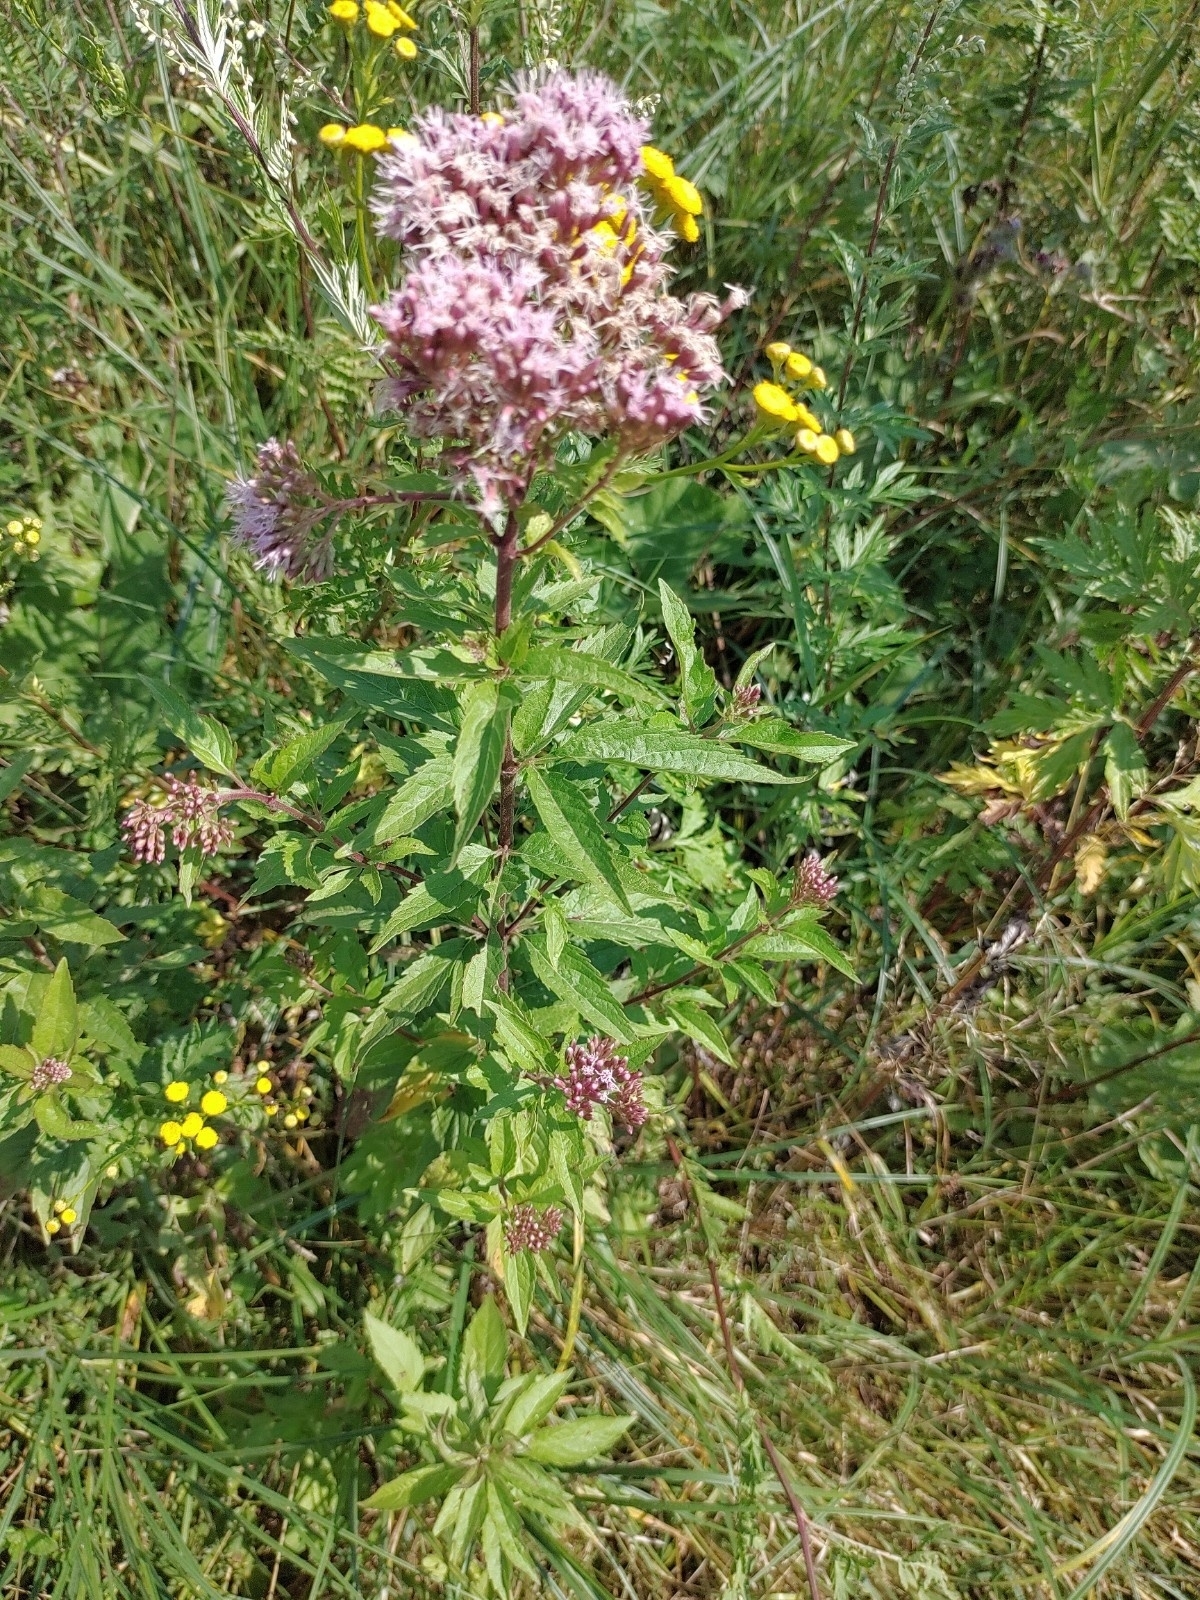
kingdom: Plantae
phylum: Tracheophyta
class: Magnoliopsida
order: Asterales
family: Asteraceae
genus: Eupatorium
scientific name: Eupatorium cannabinum
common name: Hemp-agrimony
